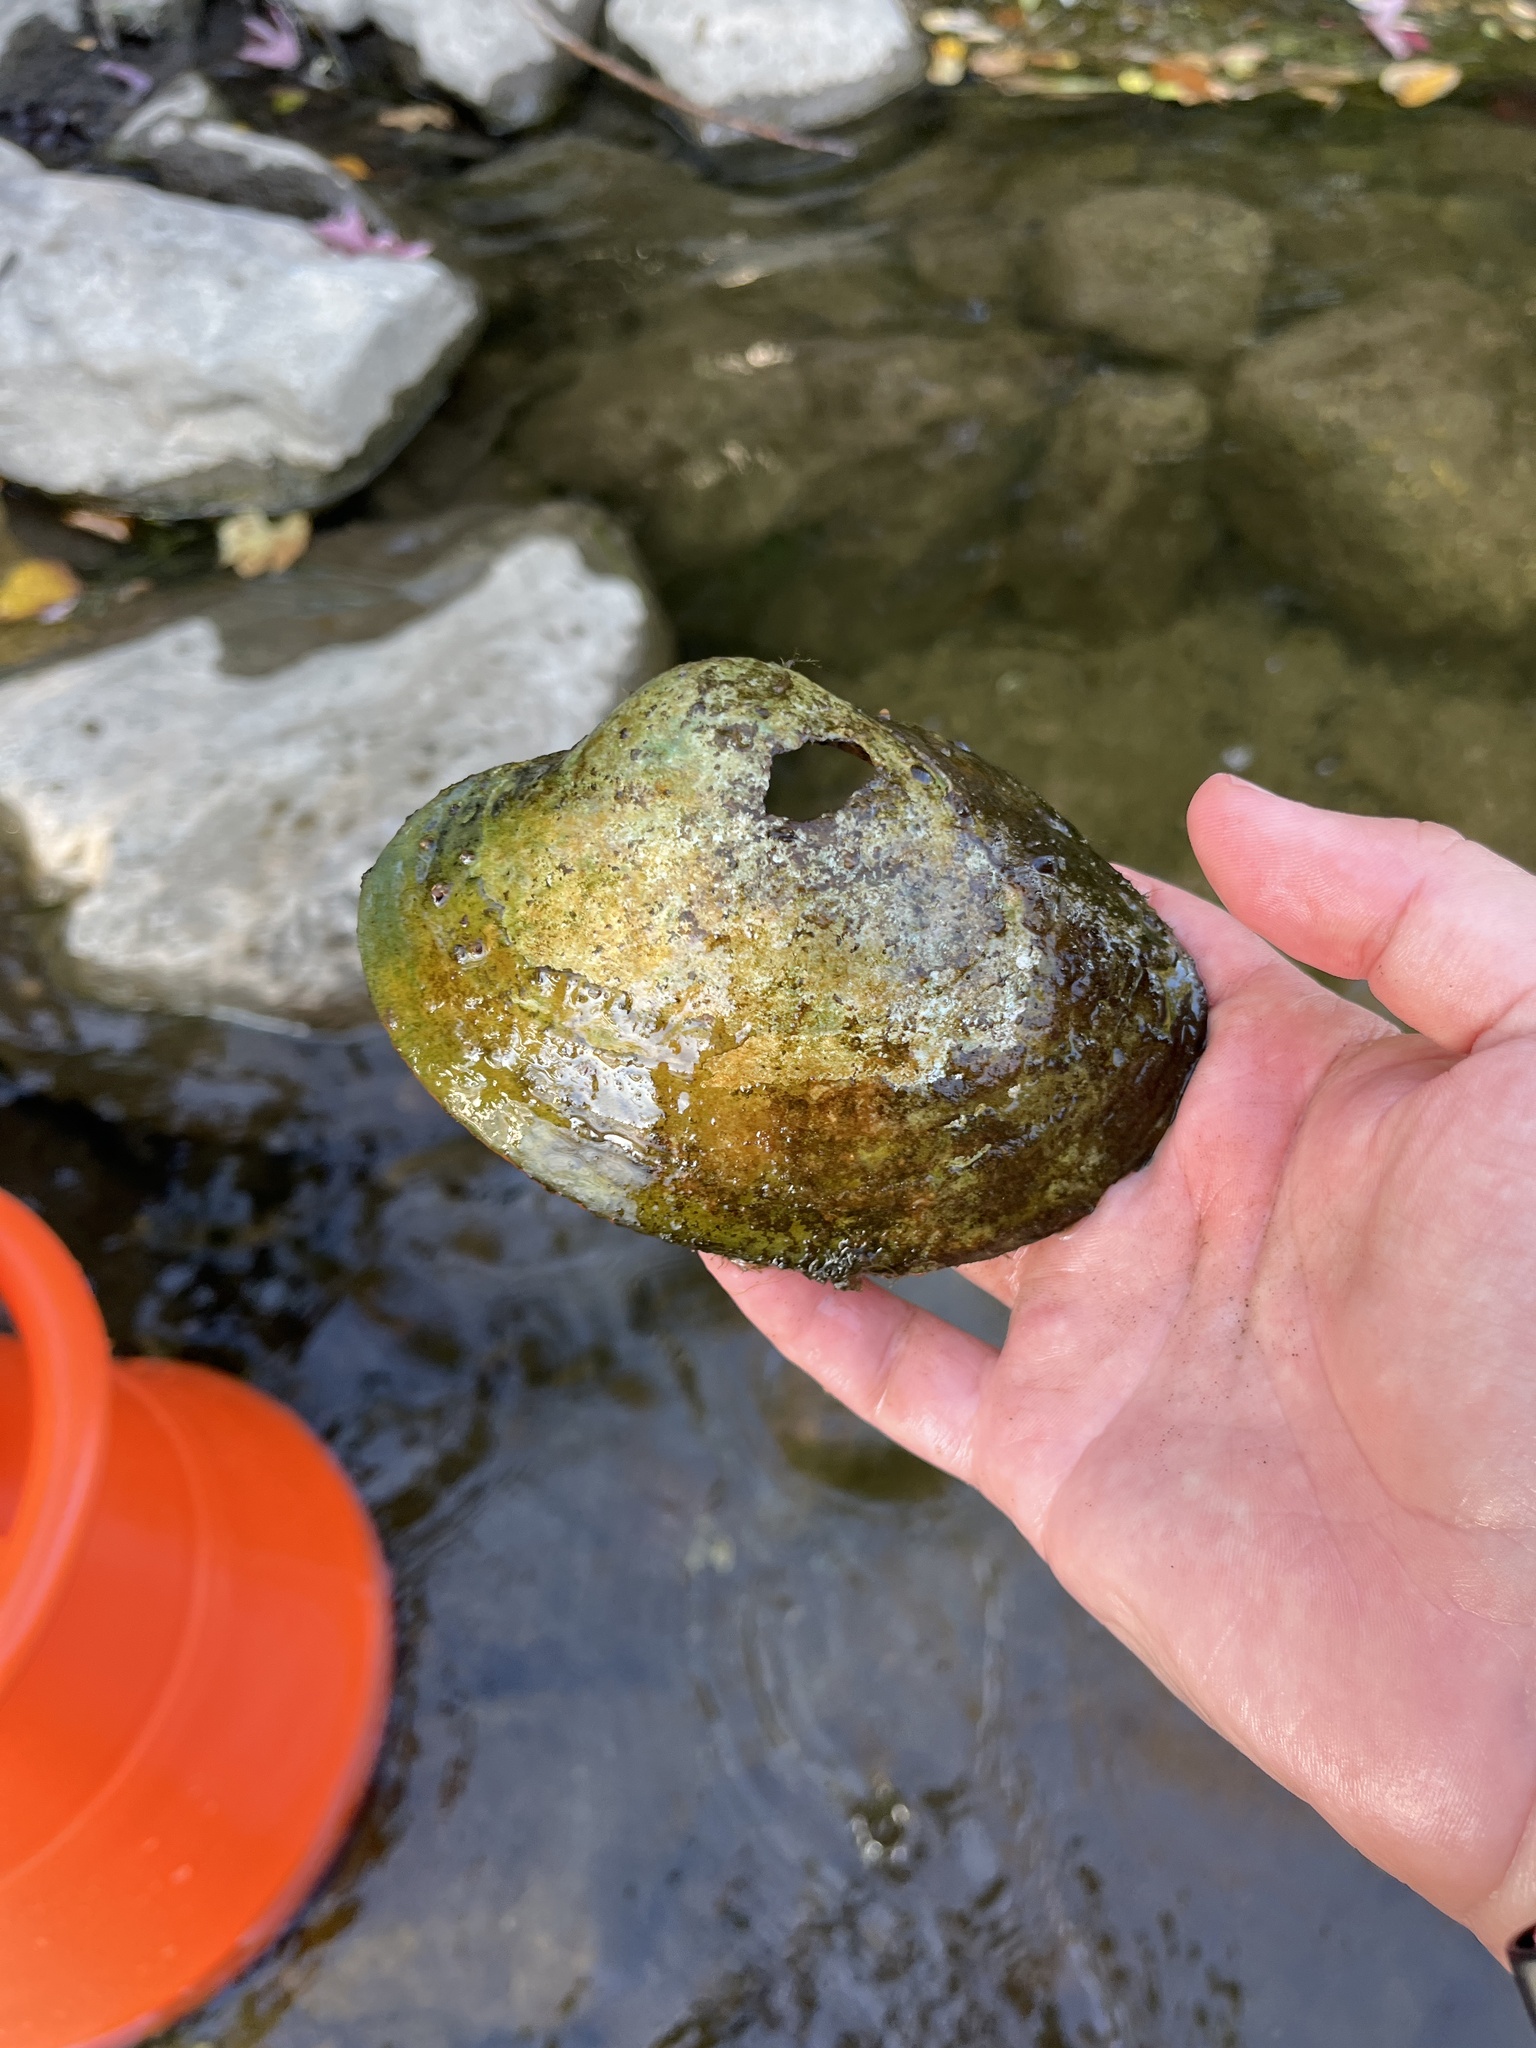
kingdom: Animalia
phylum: Mollusca
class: Bivalvia
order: Unionida
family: Unionidae
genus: Lampsilis
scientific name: Lampsilis cardium
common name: Plain pocketbook
